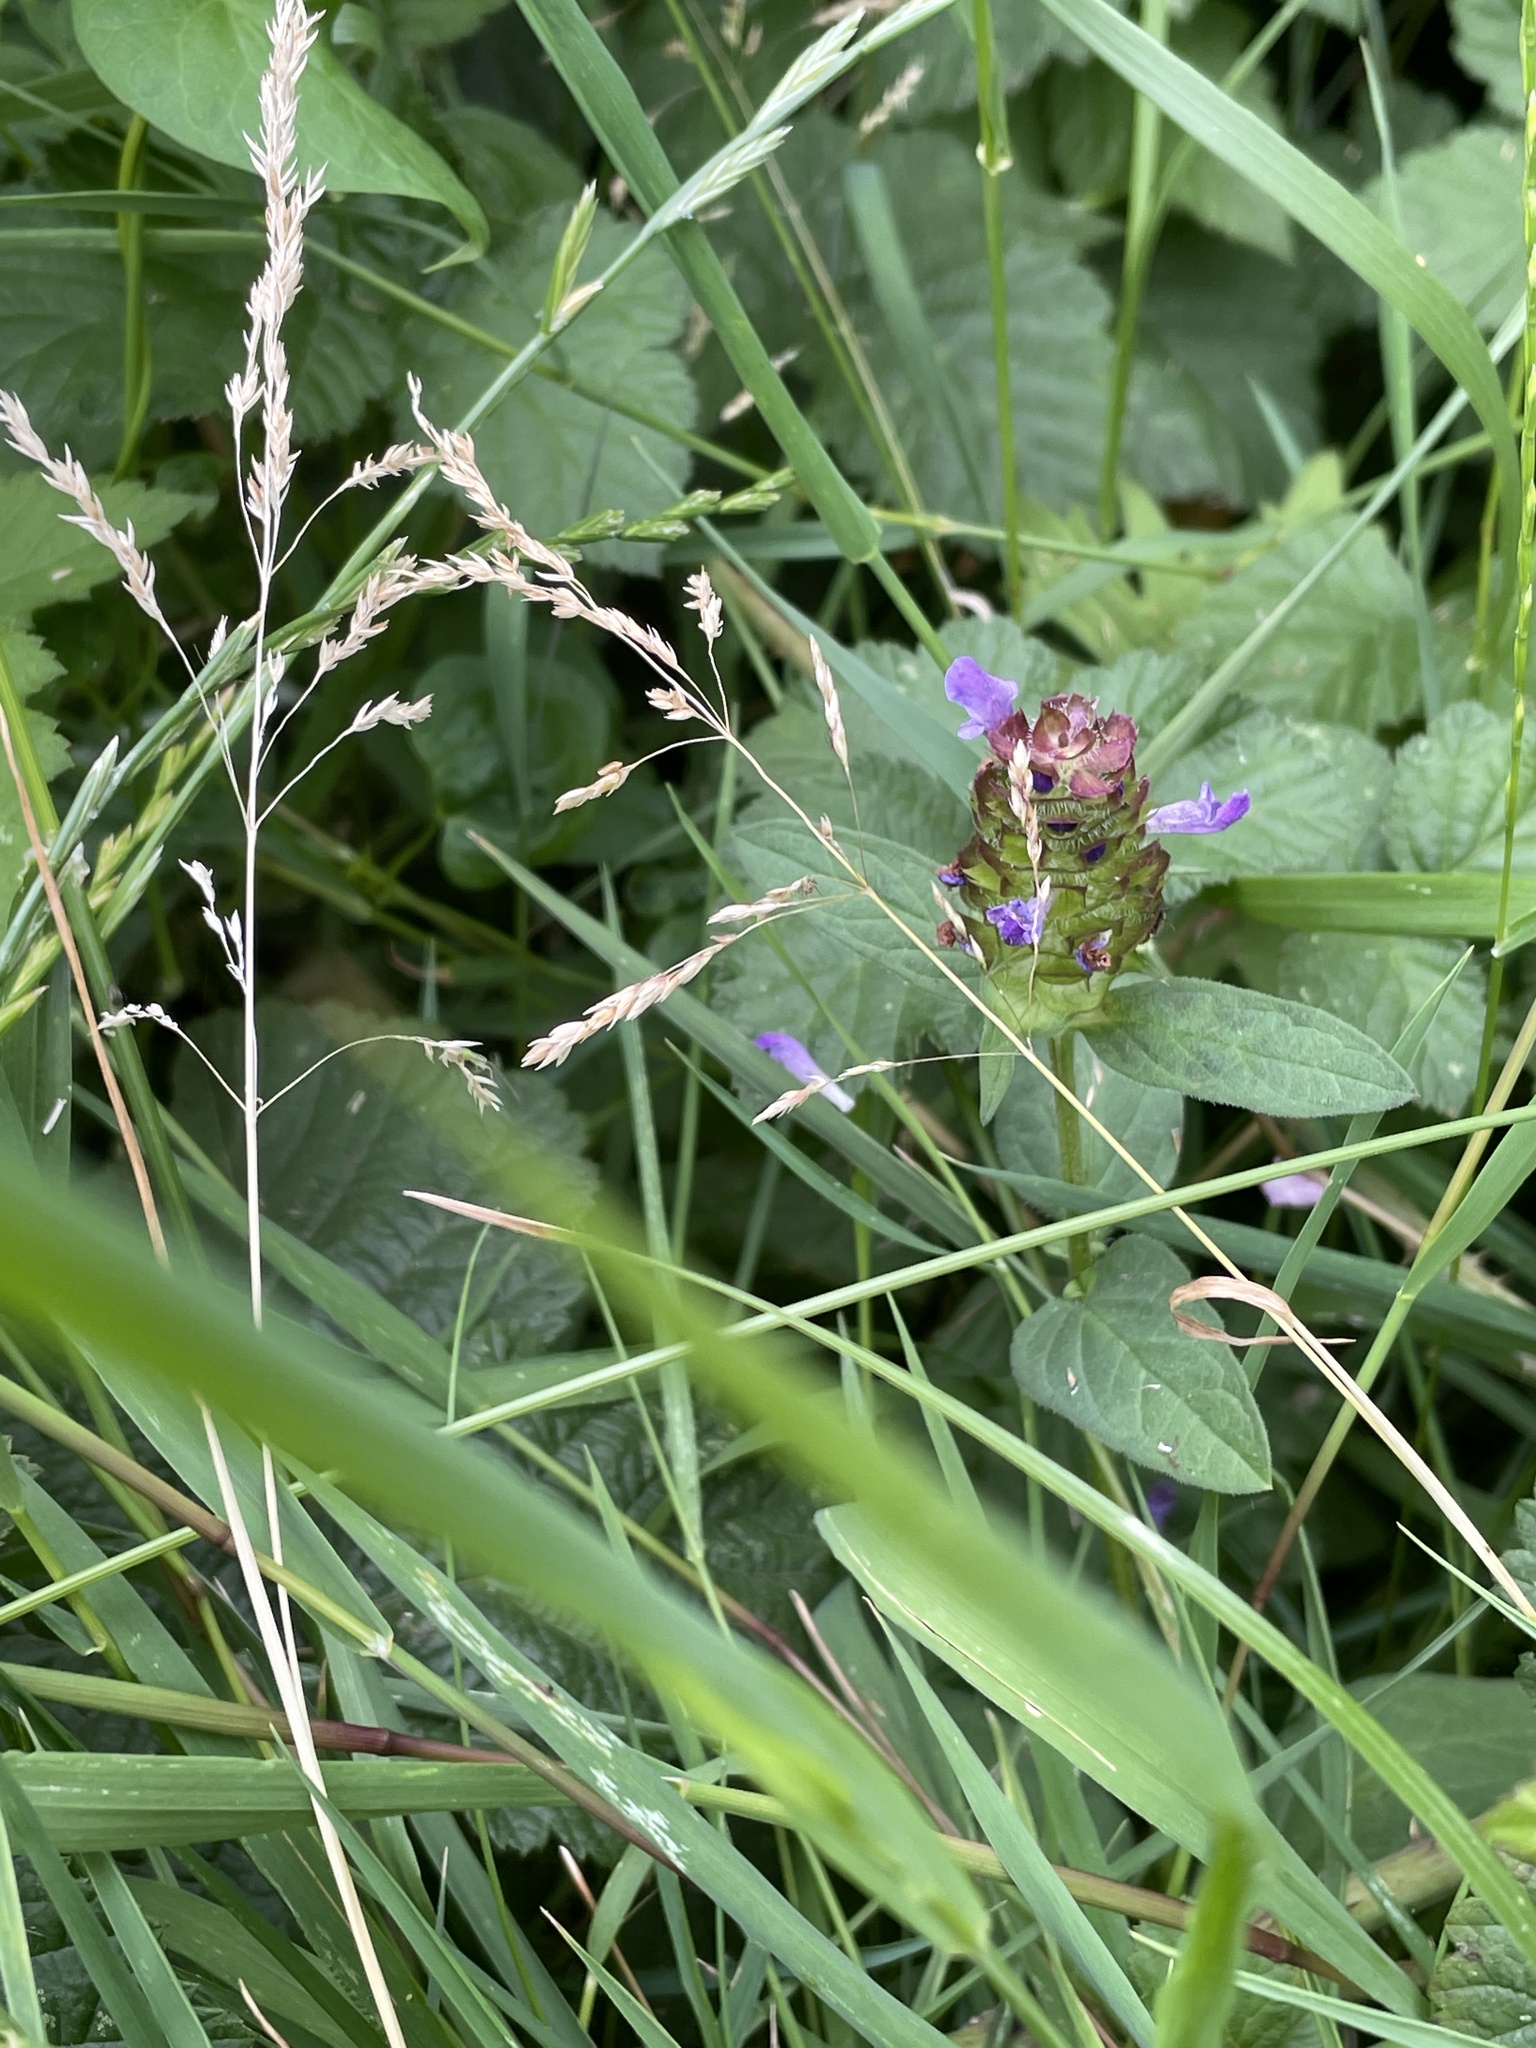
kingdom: Plantae
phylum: Tracheophyta
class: Magnoliopsida
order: Lamiales
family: Lamiaceae
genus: Prunella
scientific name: Prunella vulgaris
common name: Heal-all
